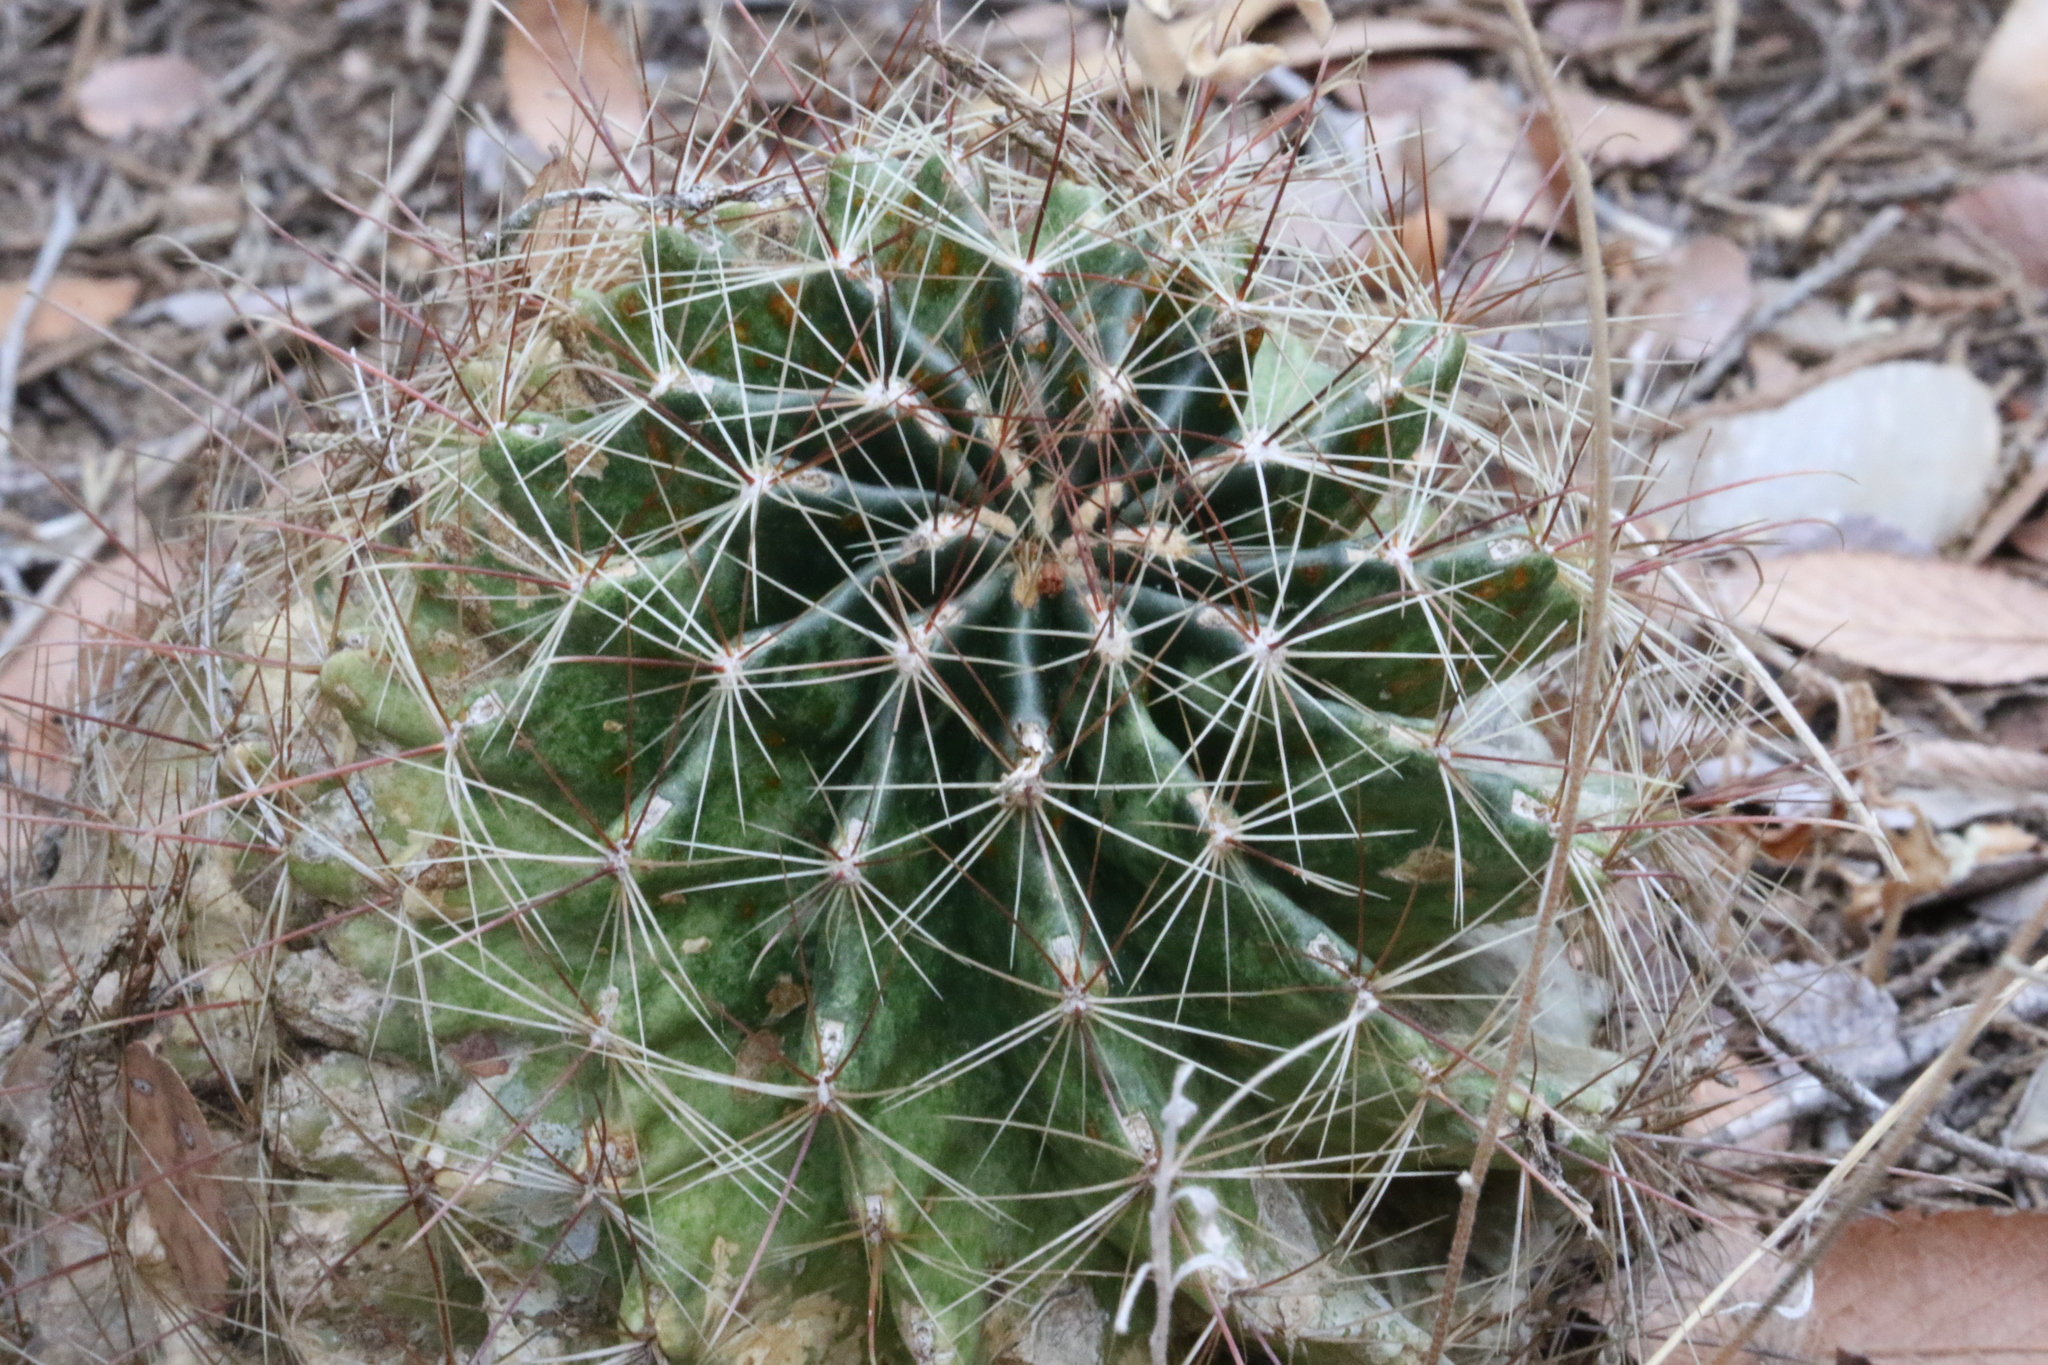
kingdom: Plantae
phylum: Tracheophyta
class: Magnoliopsida
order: Caryophyllales
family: Cactaceae
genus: Thelocactus
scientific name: Thelocactus setispinus
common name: Miniature barrel cactus
